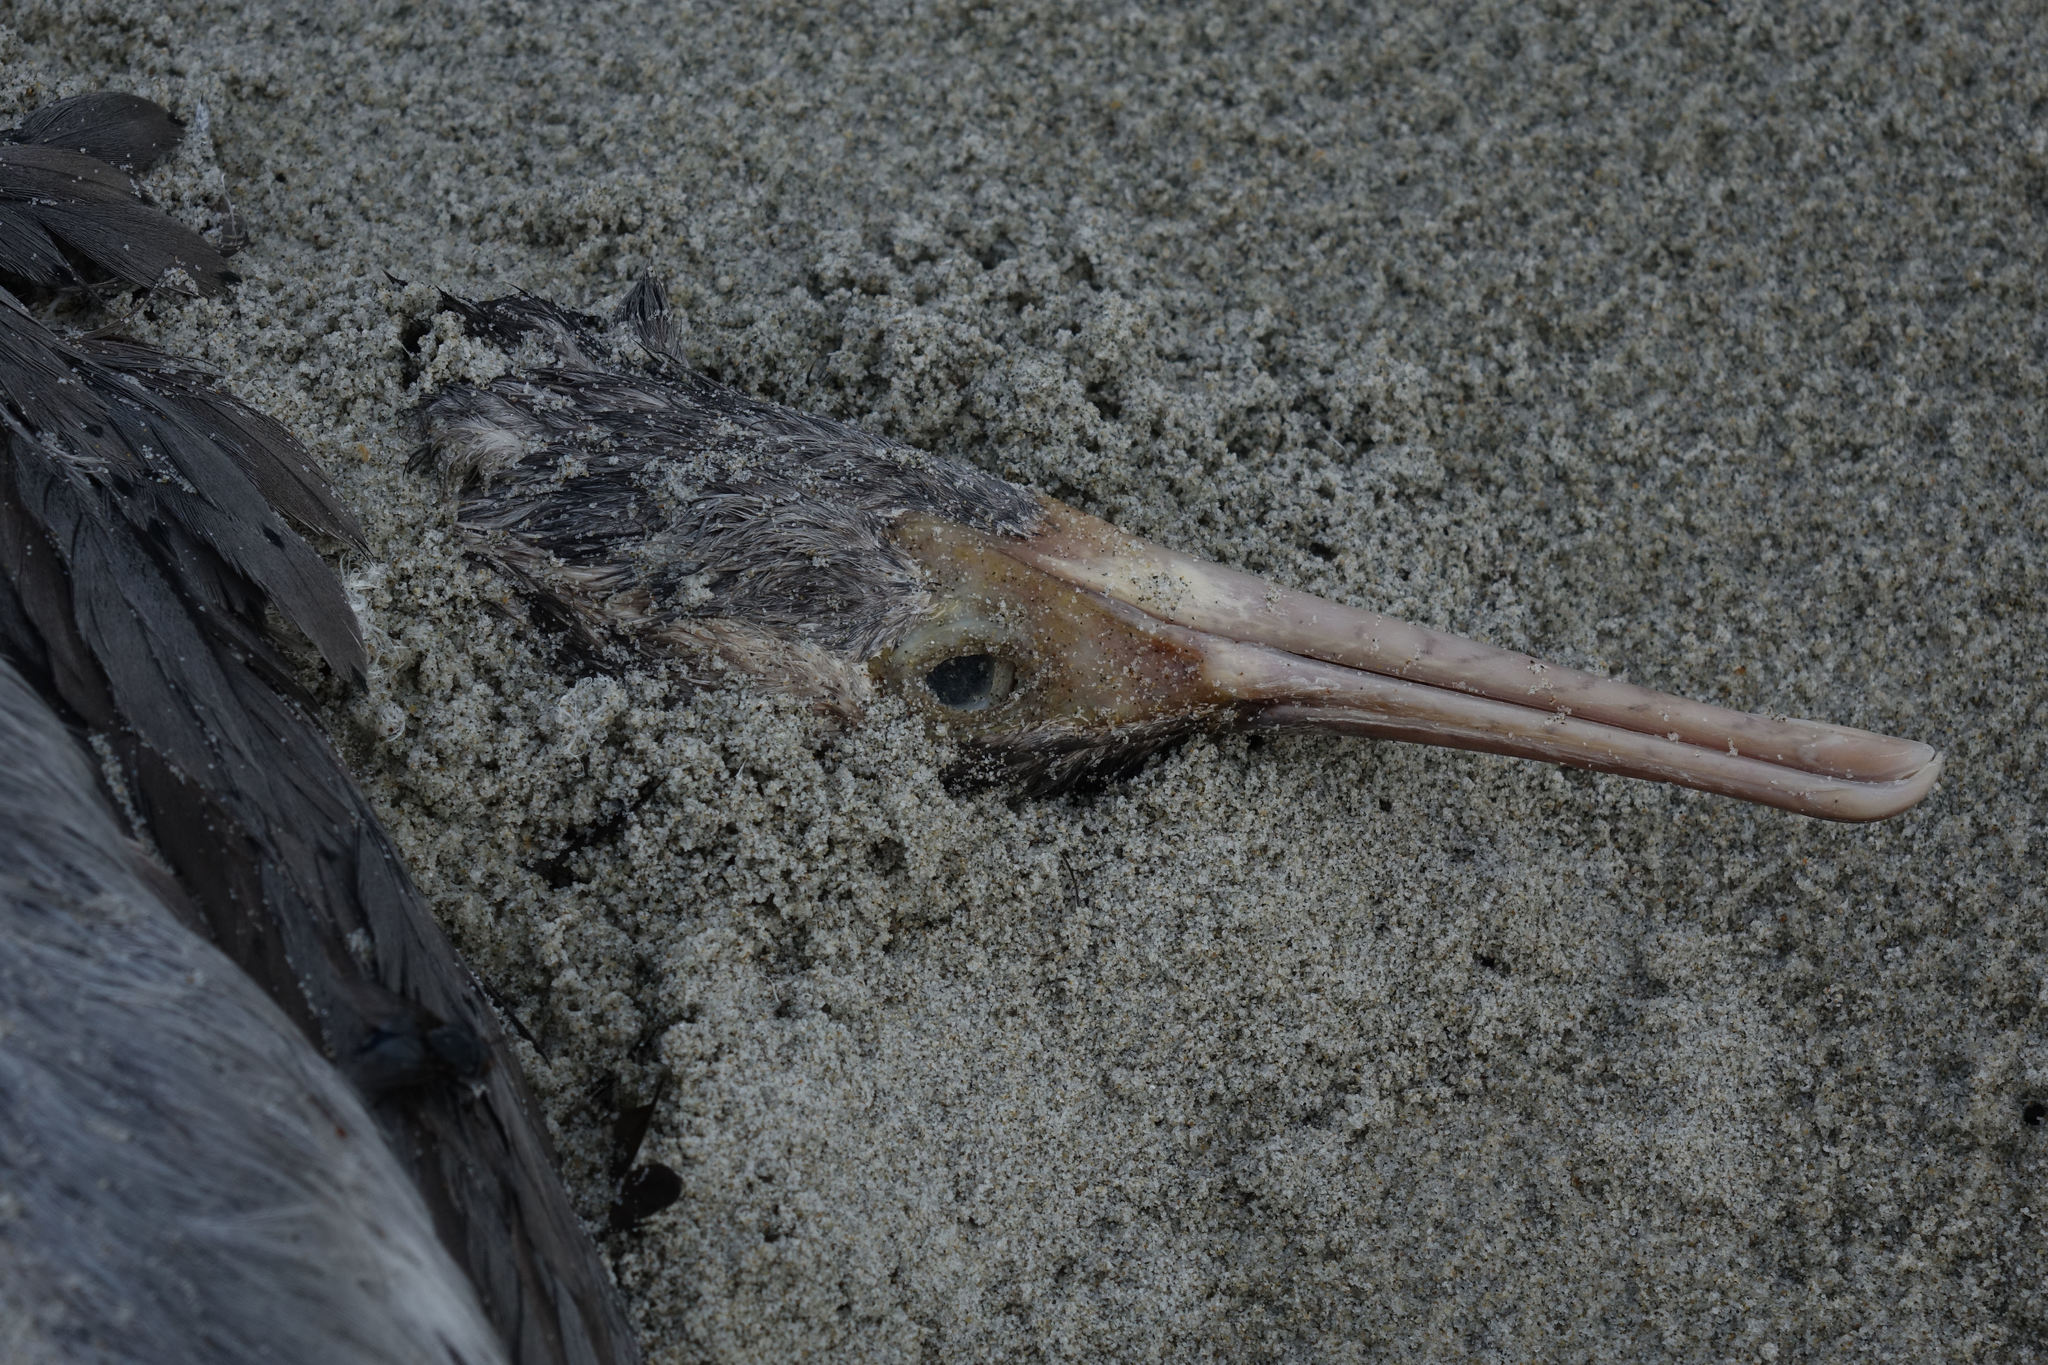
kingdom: Animalia
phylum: Chordata
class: Aves
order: Suliformes
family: Phalacrocoracidae
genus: Phalacrocorax
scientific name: Phalacrocorax punctatus
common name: Spotted shag
